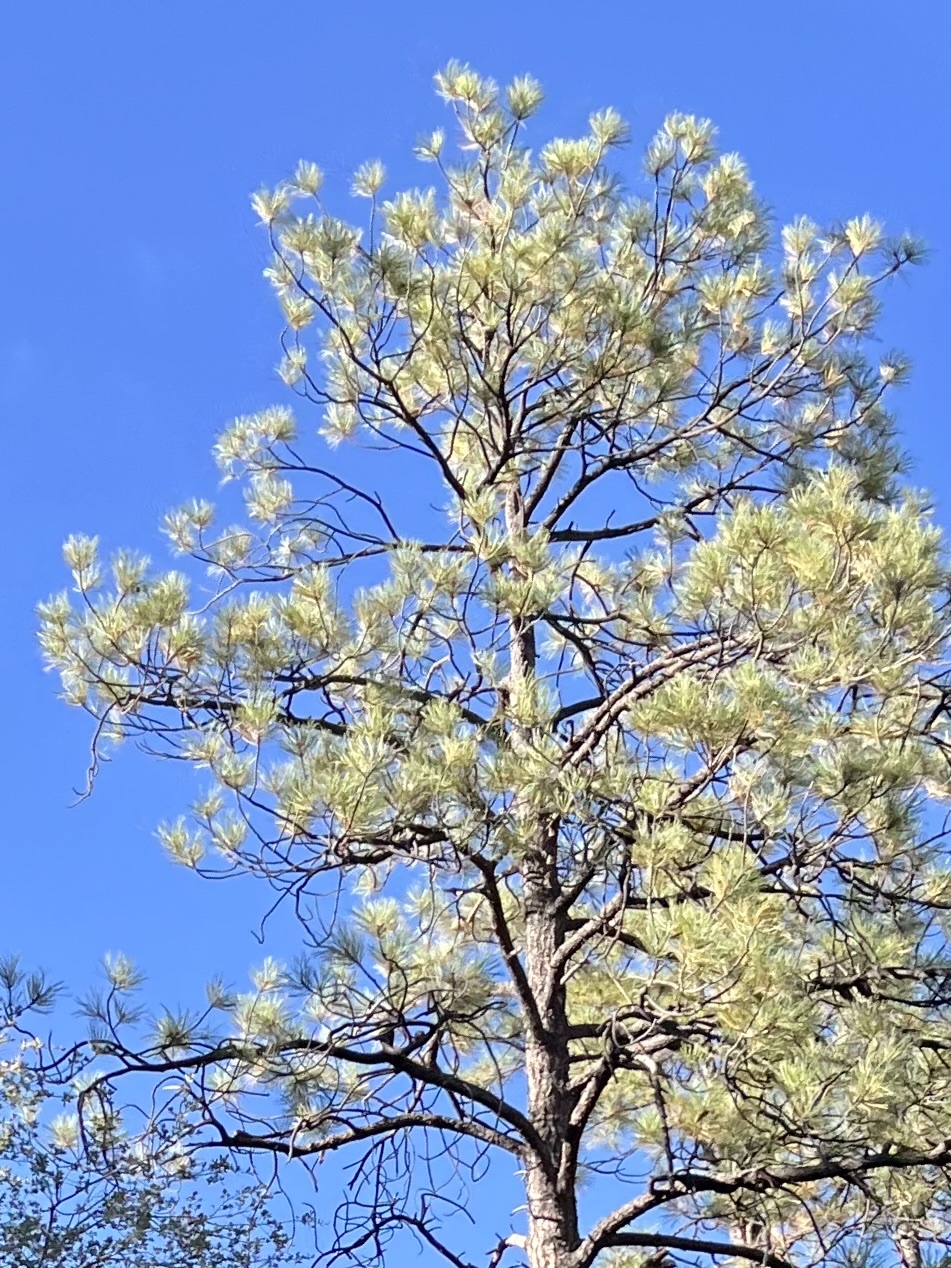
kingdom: Plantae
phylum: Tracheophyta
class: Pinopsida
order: Pinales
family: Pinaceae
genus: Pinus
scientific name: Pinus ponderosa
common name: Western yellow-pine
